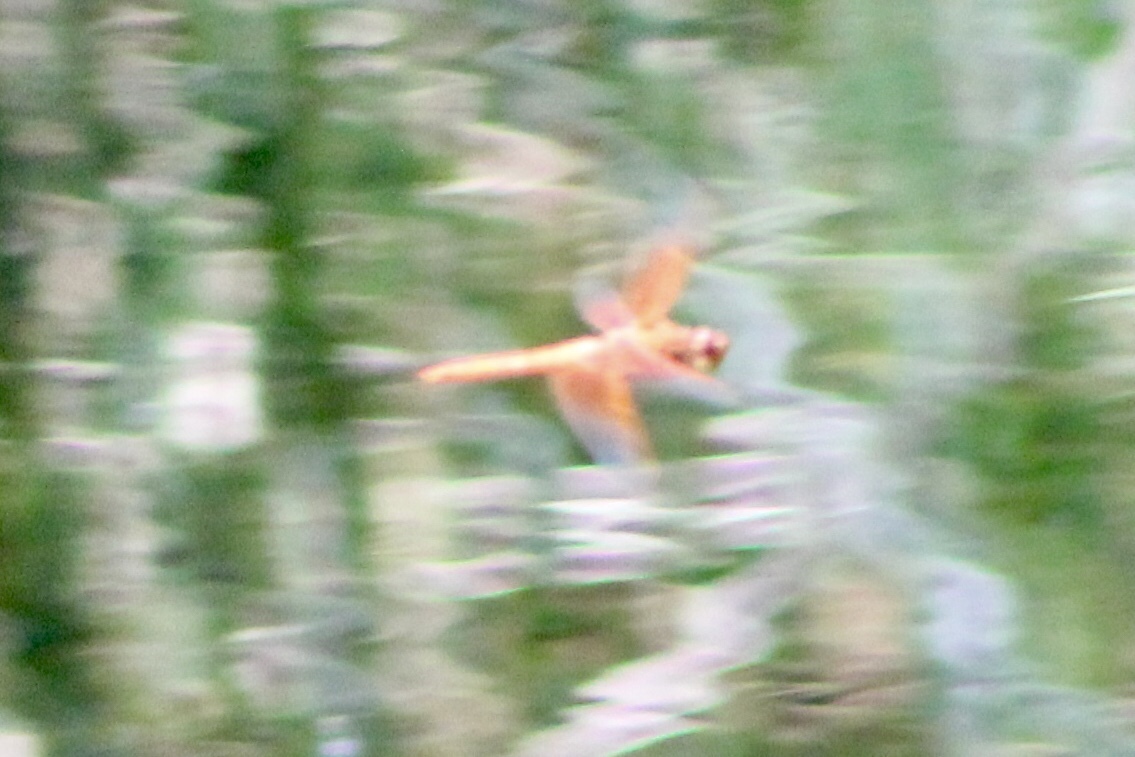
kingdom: Animalia
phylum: Arthropoda
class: Insecta
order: Odonata
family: Libellulidae
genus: Libellula
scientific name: Libellula saturata
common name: Flame skimmer
